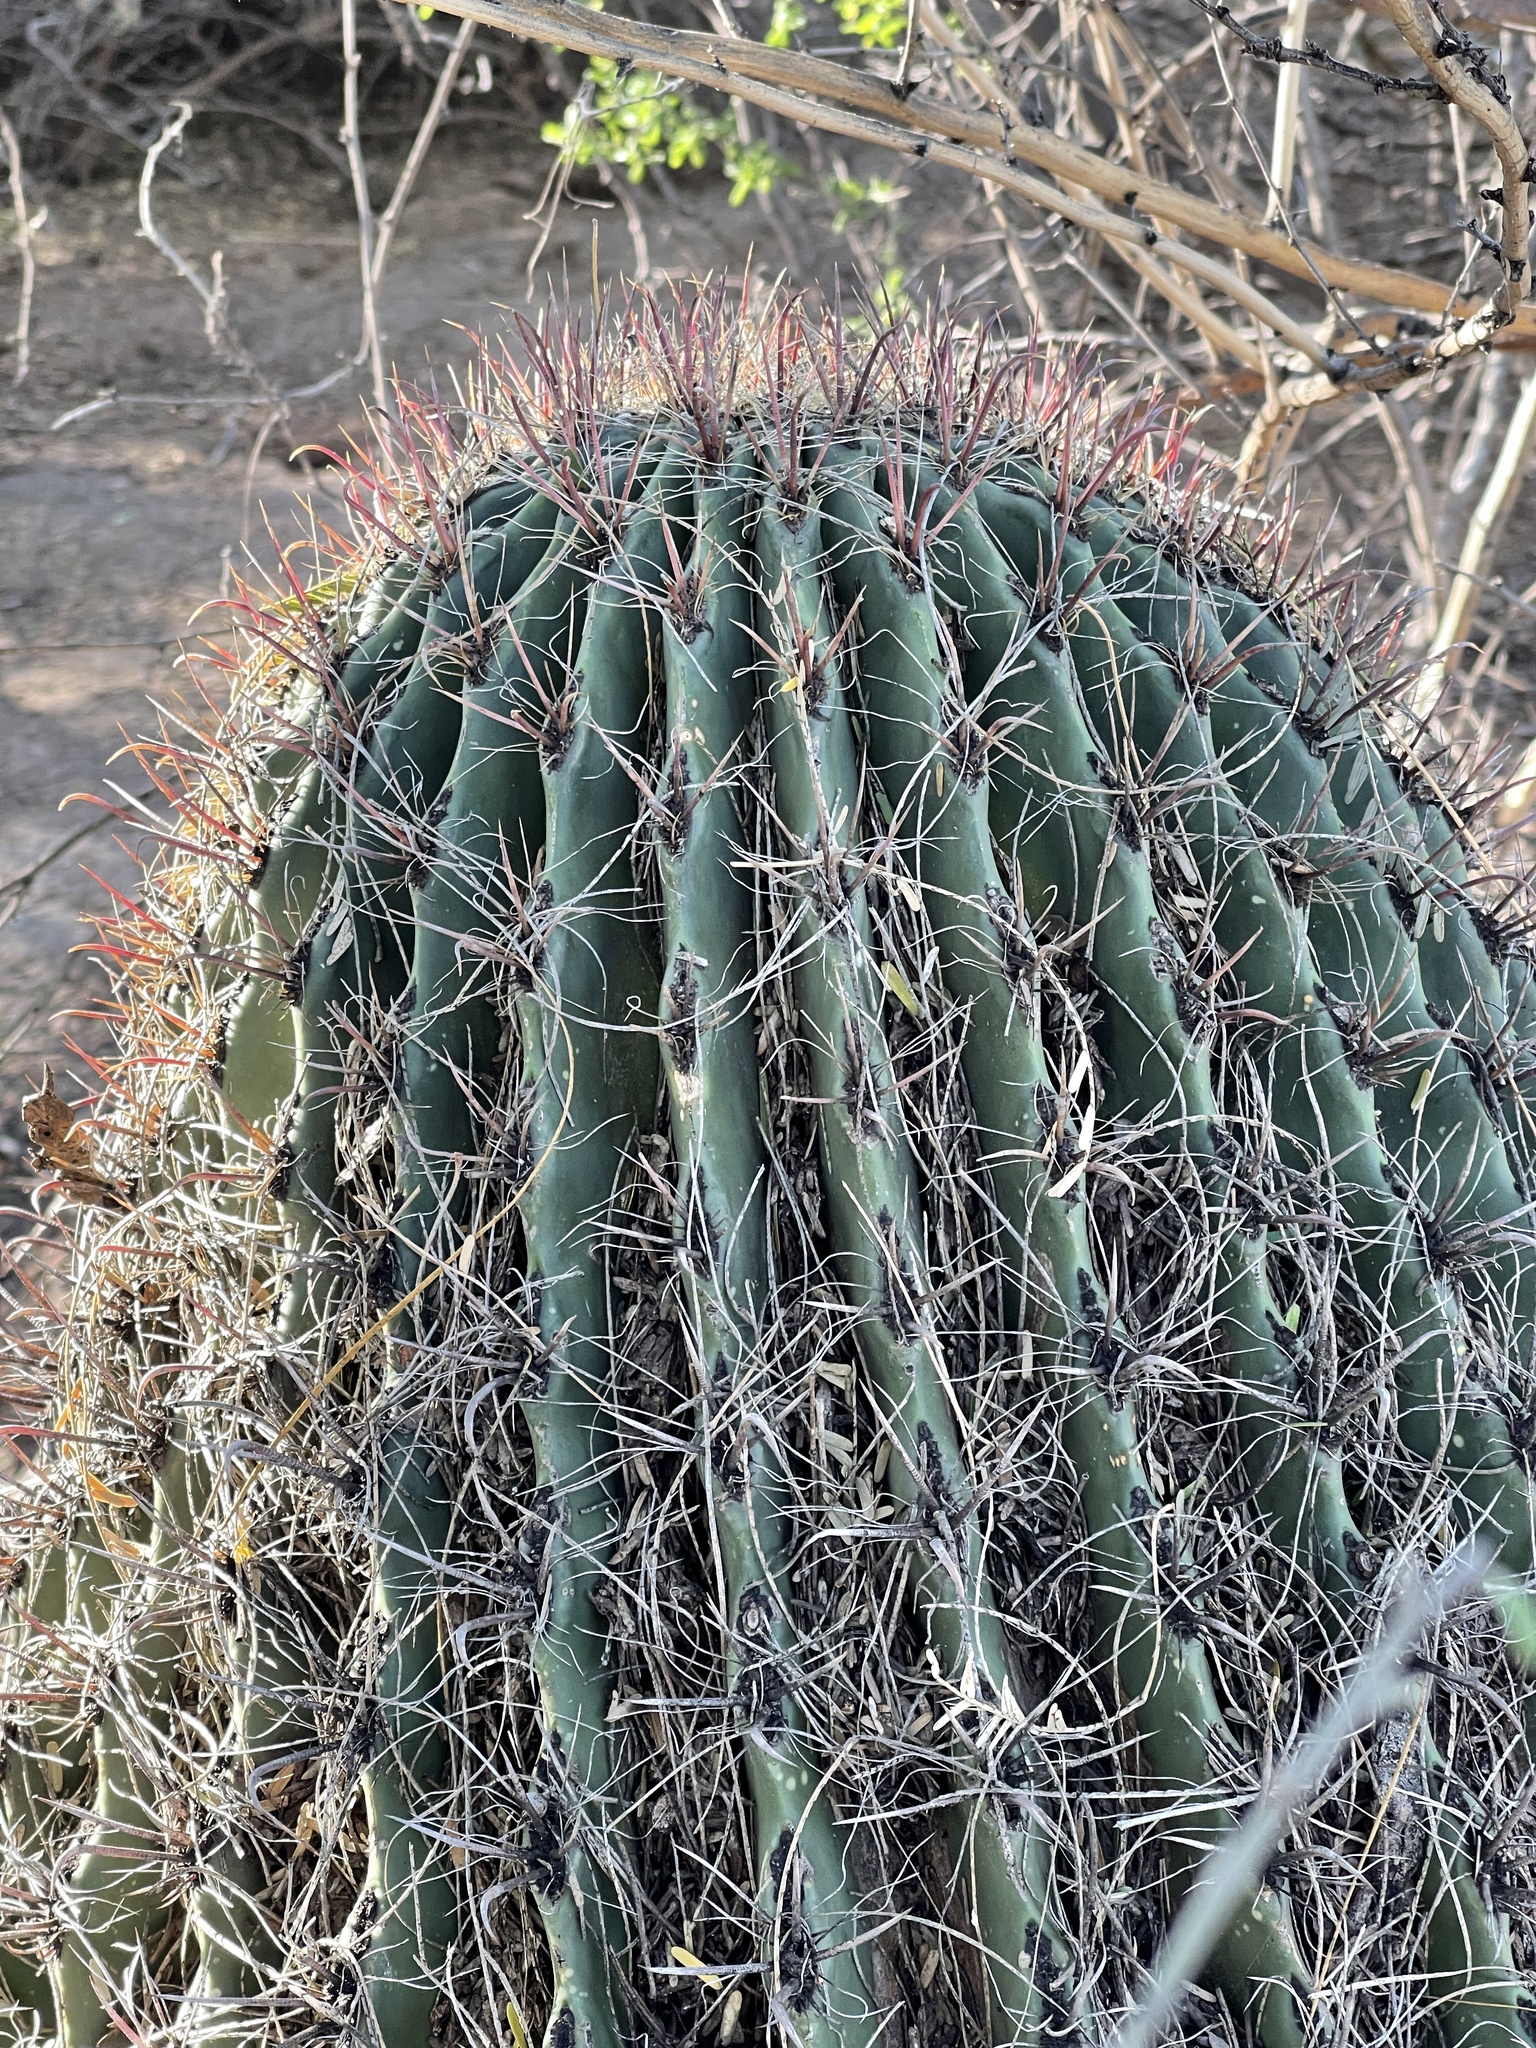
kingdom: Plantae
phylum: Tracheophyta
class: Magnoliopsida
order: Caryophyllales
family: Cactaceae
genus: Ferocactus
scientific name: Ferocactus wislizeni
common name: Candy barrel cactus
